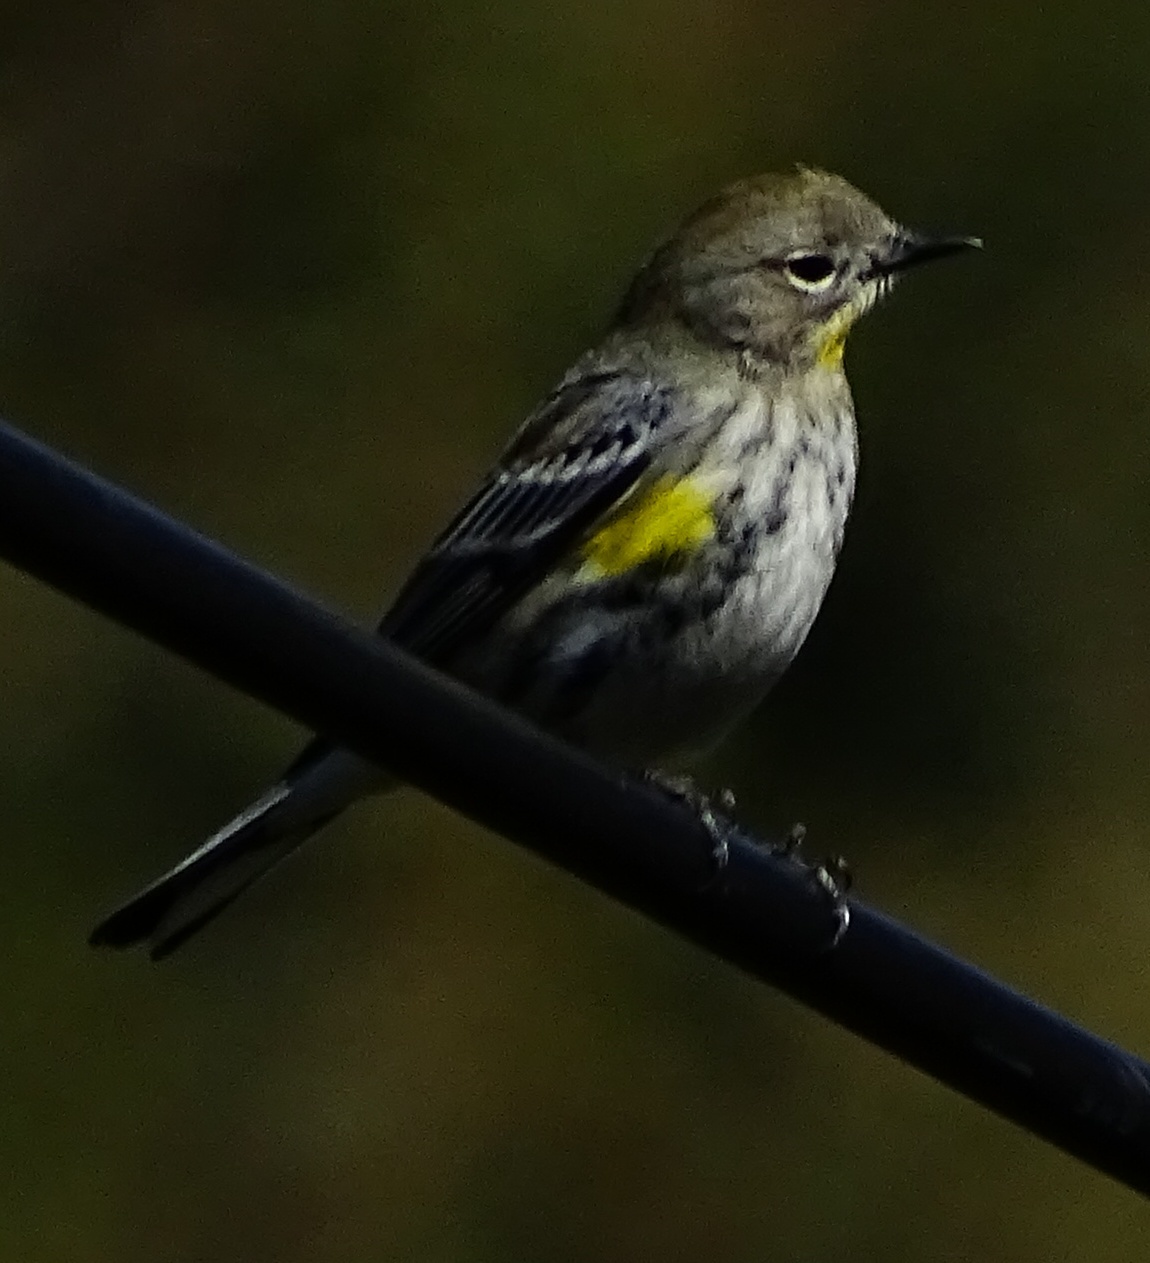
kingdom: Animalia
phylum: Chordata
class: Aves
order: Passeriformes
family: Parulidae
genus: Setophaga
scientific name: Setophaga auduboni
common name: Audubon's warbler
